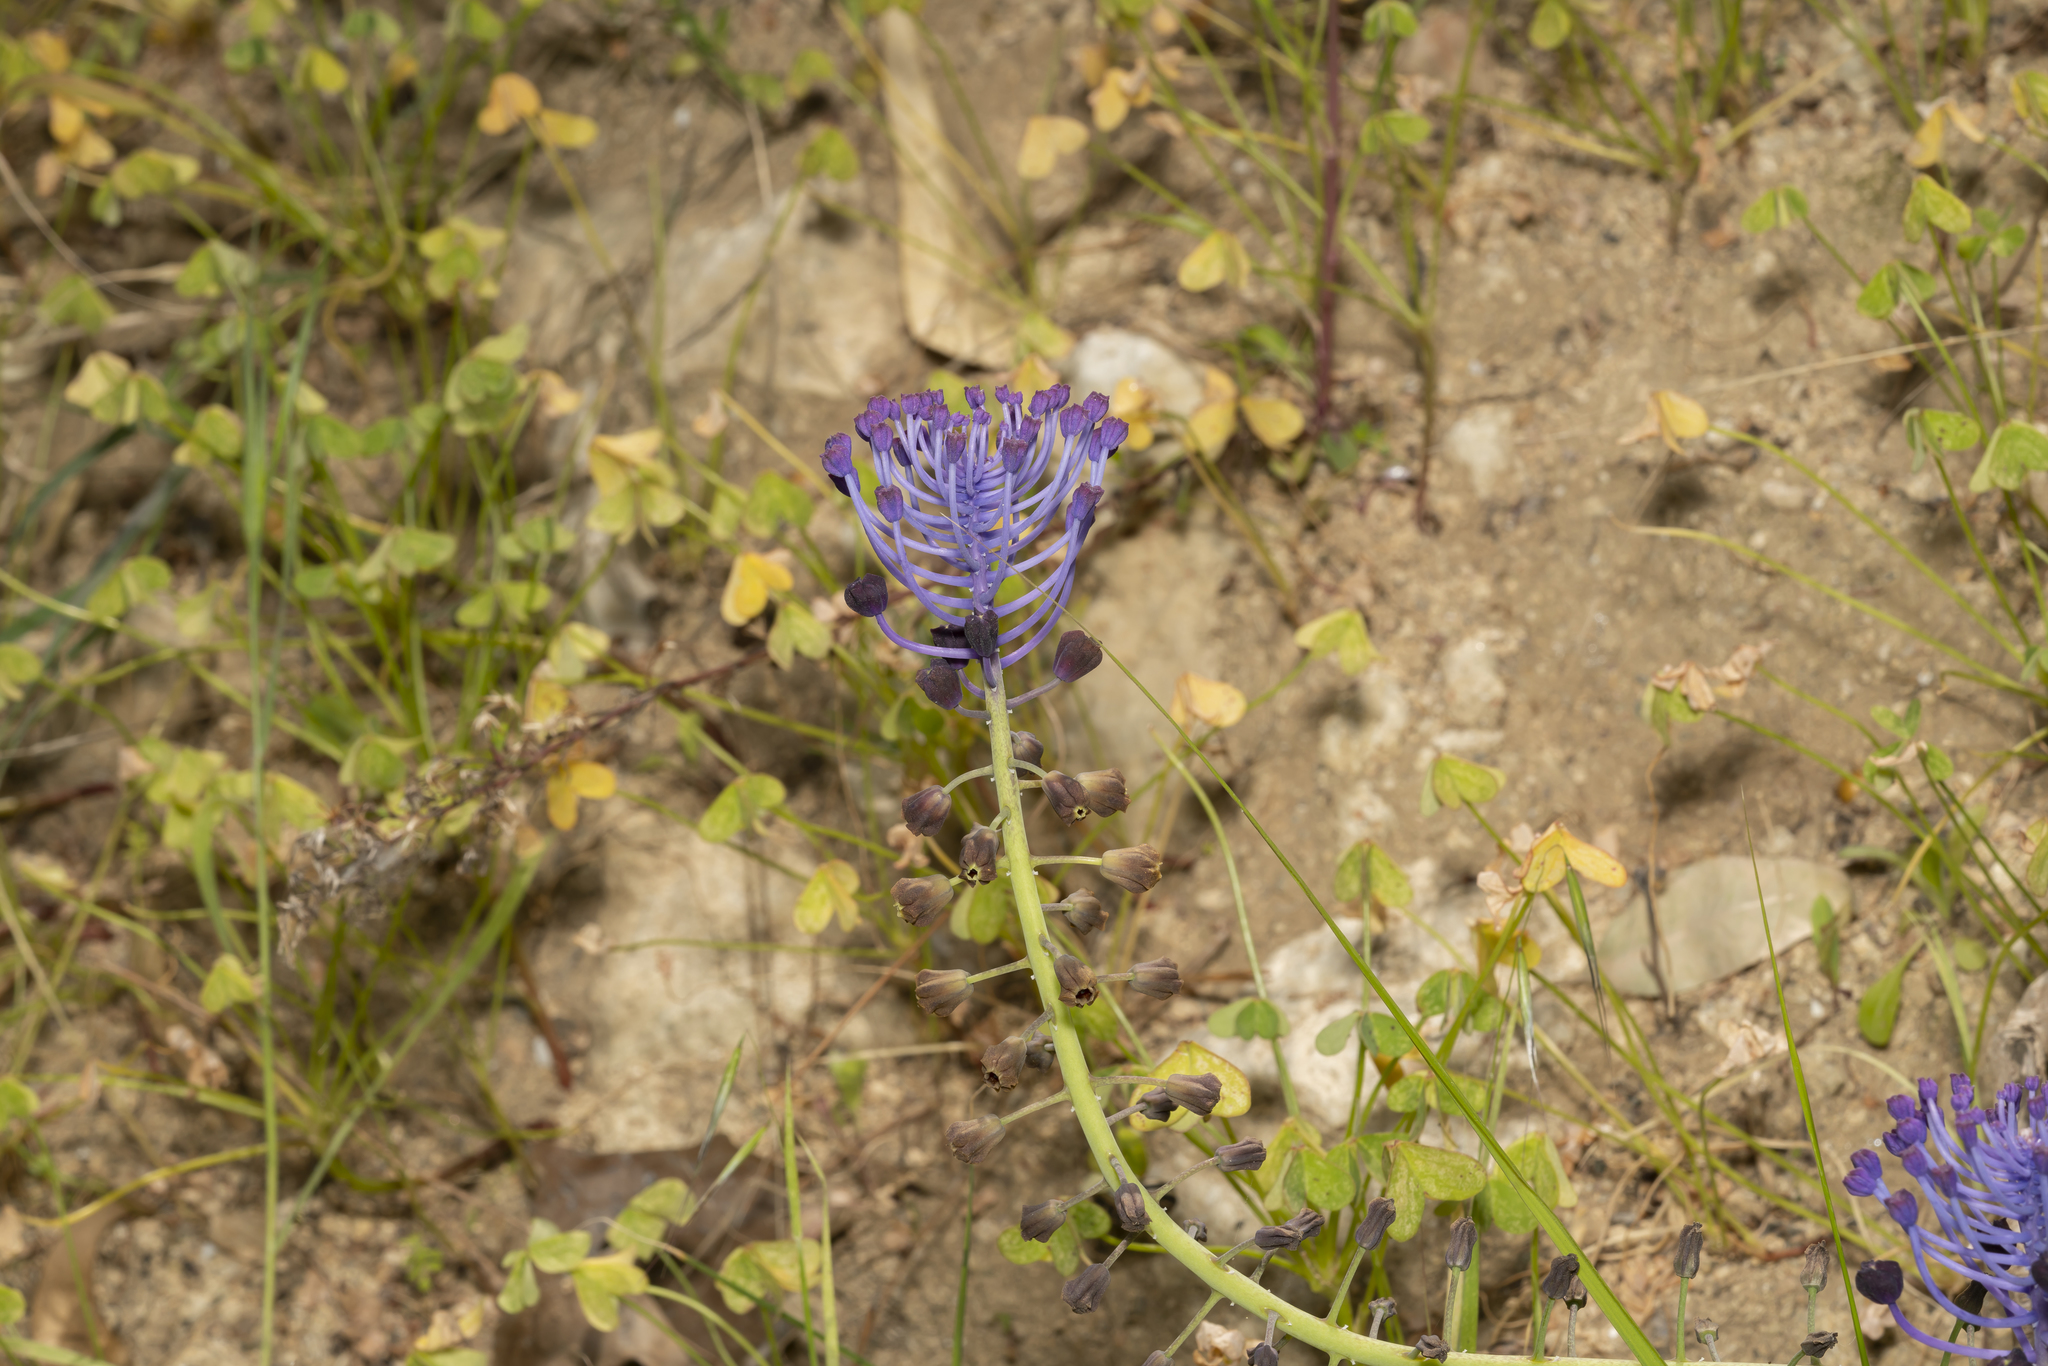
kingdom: Plantae
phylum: Tracheophyta
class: Liliopsida
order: Asparagales
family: Asparagaceae
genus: Muscari
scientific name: Muscari comosum
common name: Tassel hyacinth
